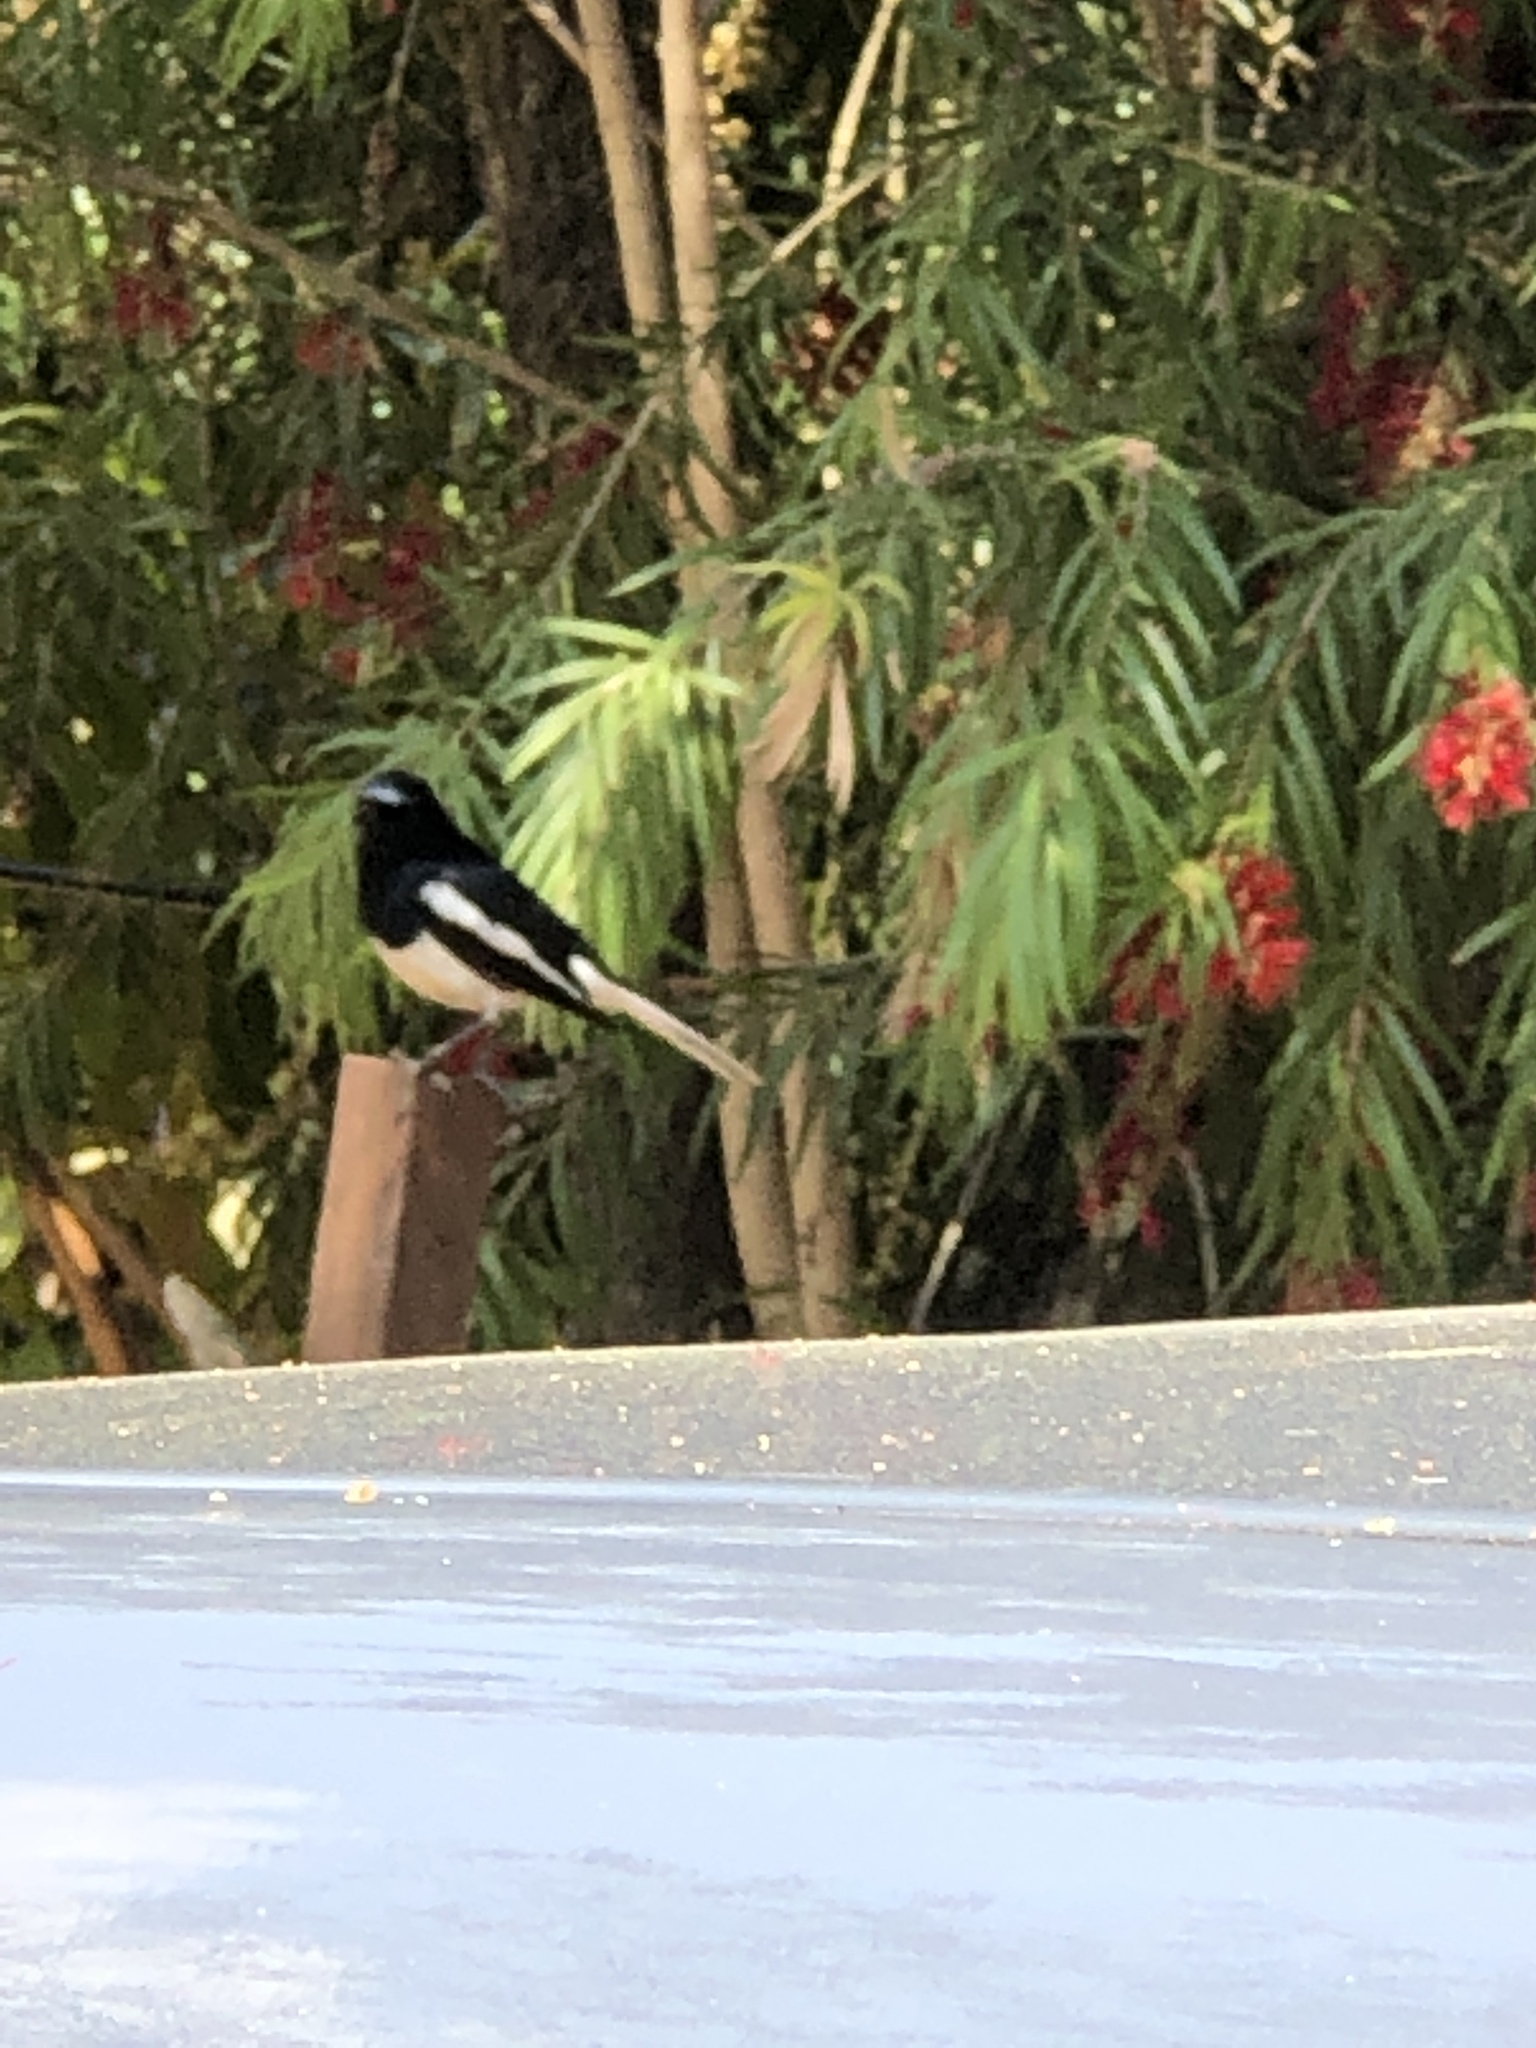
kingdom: Animalia
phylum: Chordata
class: Aves
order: Passeriformes
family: Muscicapidae
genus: Copsychus
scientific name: Copsychus saularis
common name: Oriental magpie-robin
